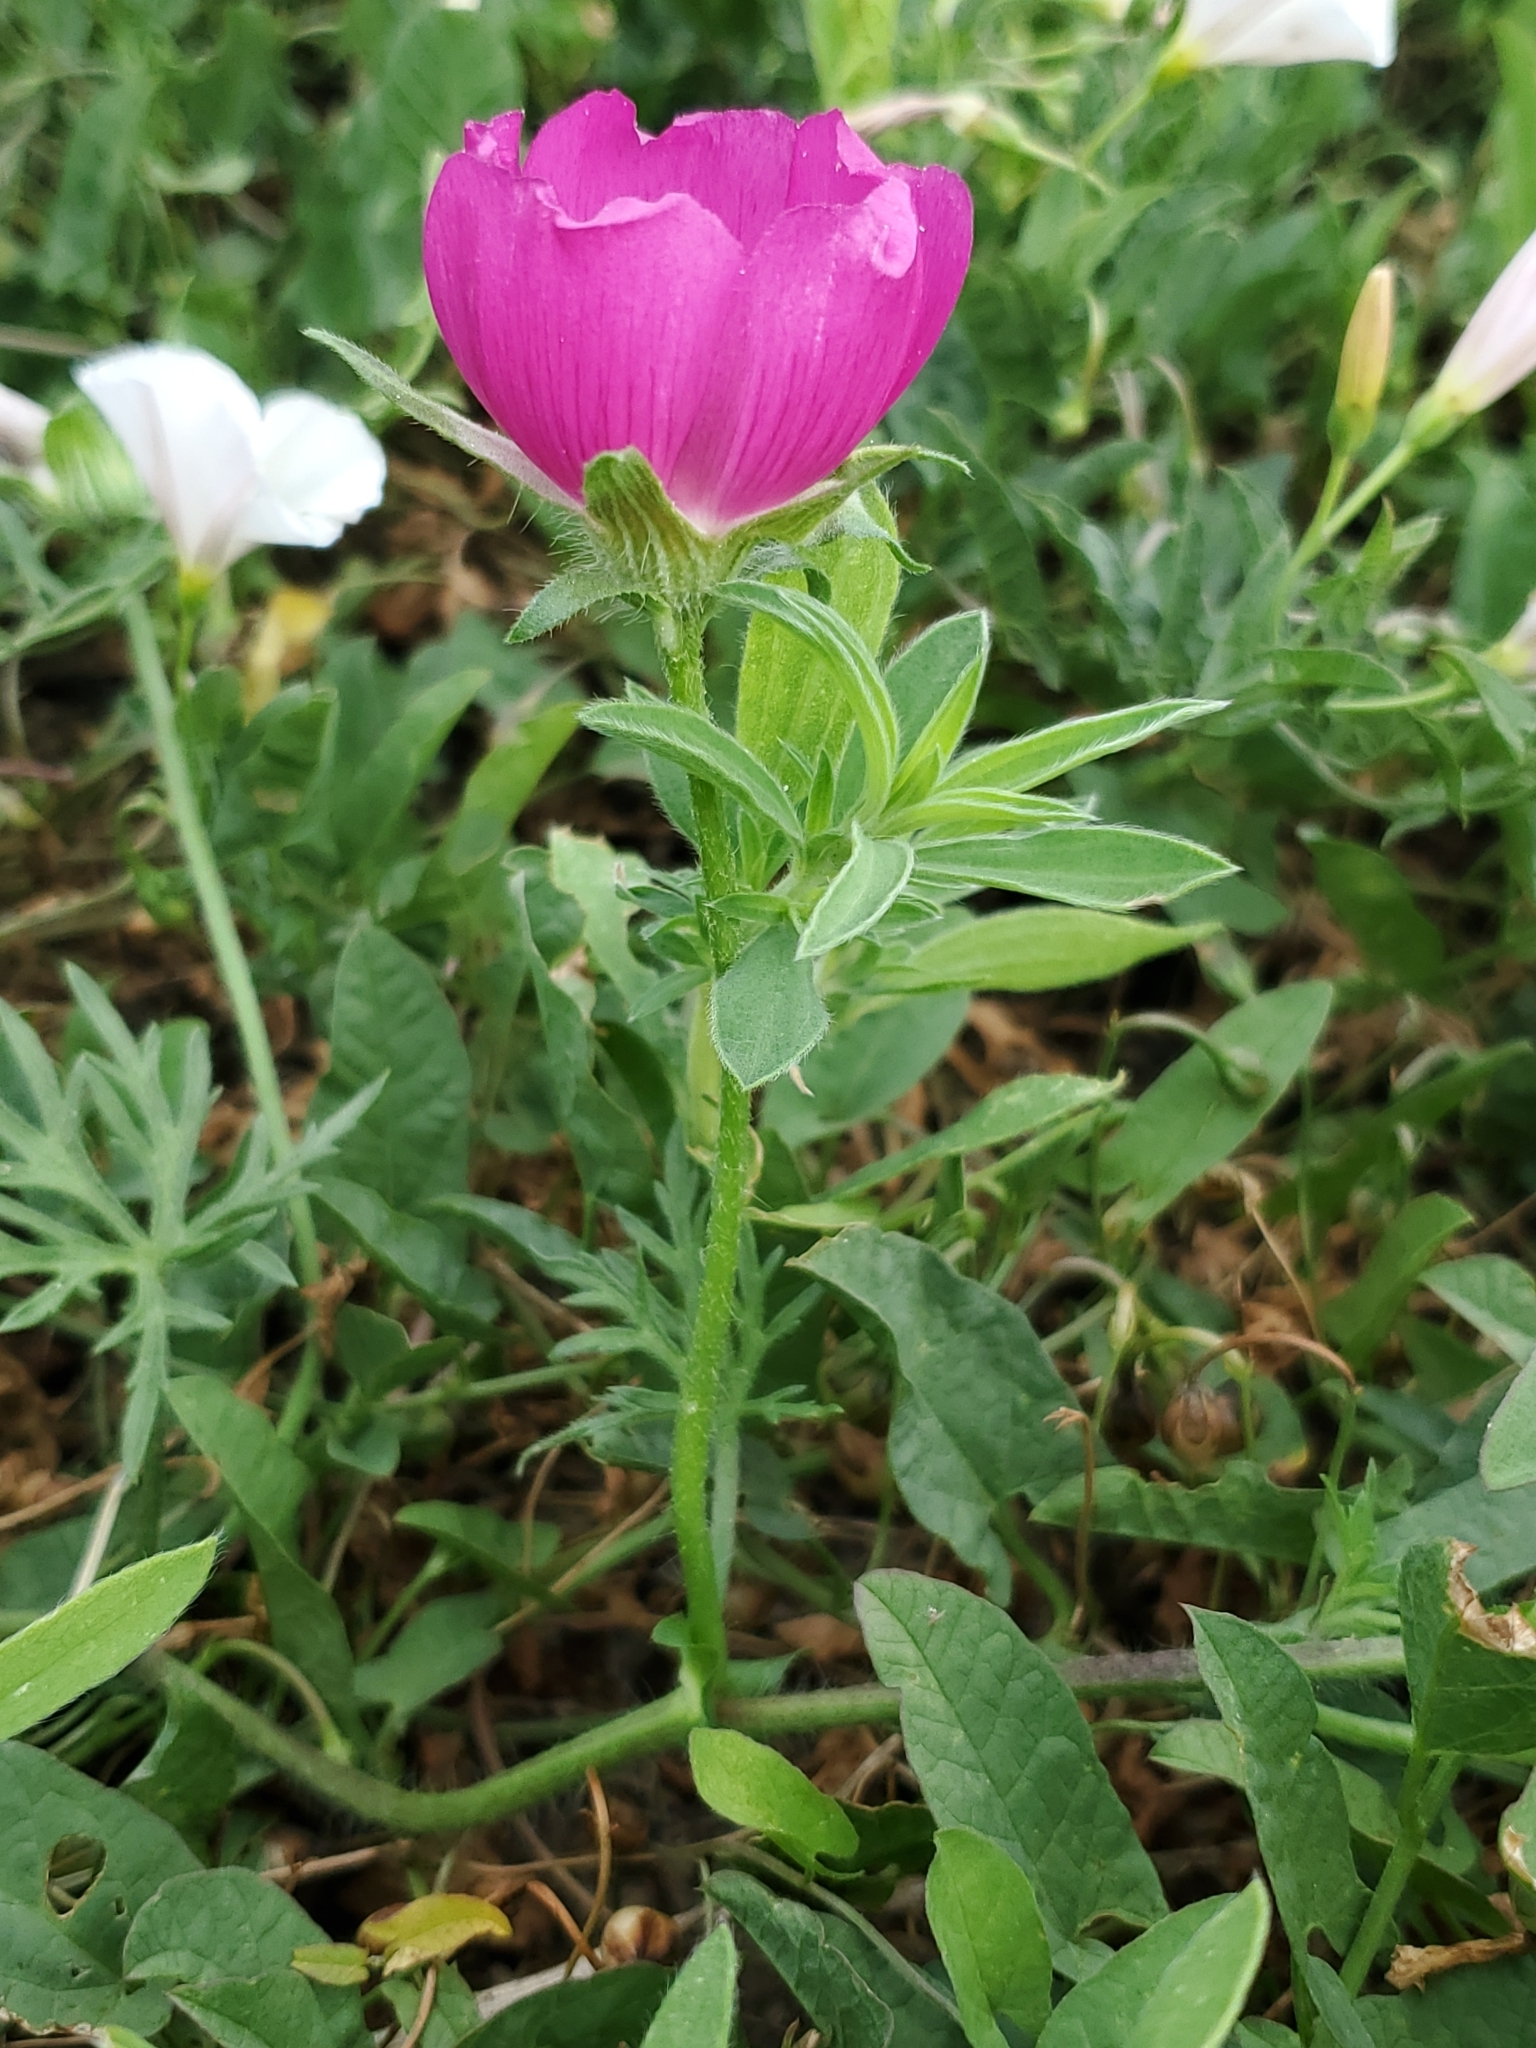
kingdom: Plantae
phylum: Tracheophyta
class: Magnoliopsida
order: Malvales
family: Malvaceae
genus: Callirhoe
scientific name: Callirhoe involucrata
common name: Purple poppy-mallow
